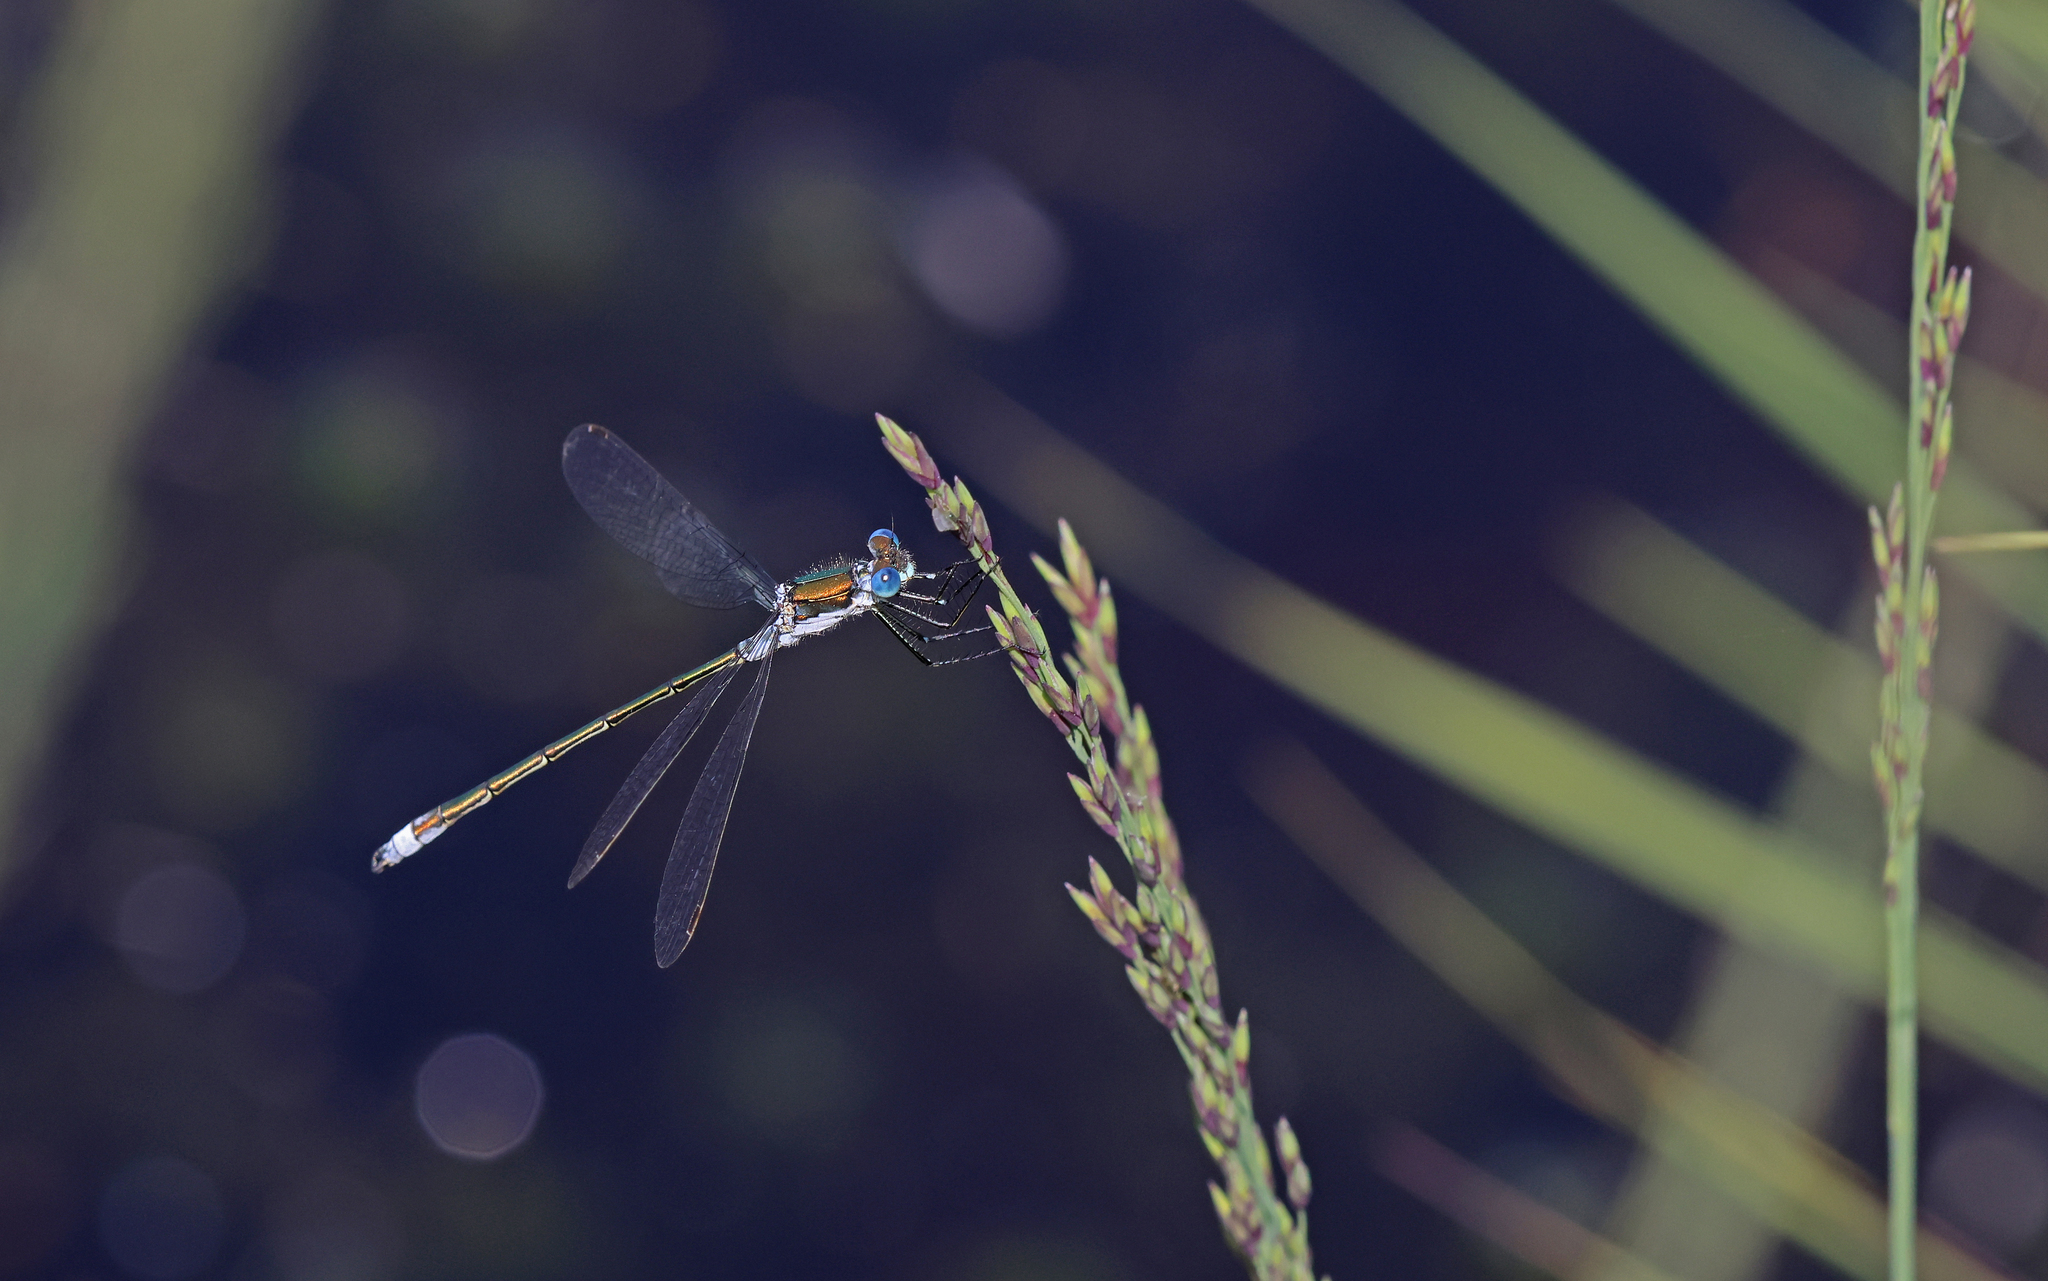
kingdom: Animalia
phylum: Arthropoda
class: Insecta
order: Odonata
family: Lestidae
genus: Lestes
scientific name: Lestes sponsa
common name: Common spreadwing
